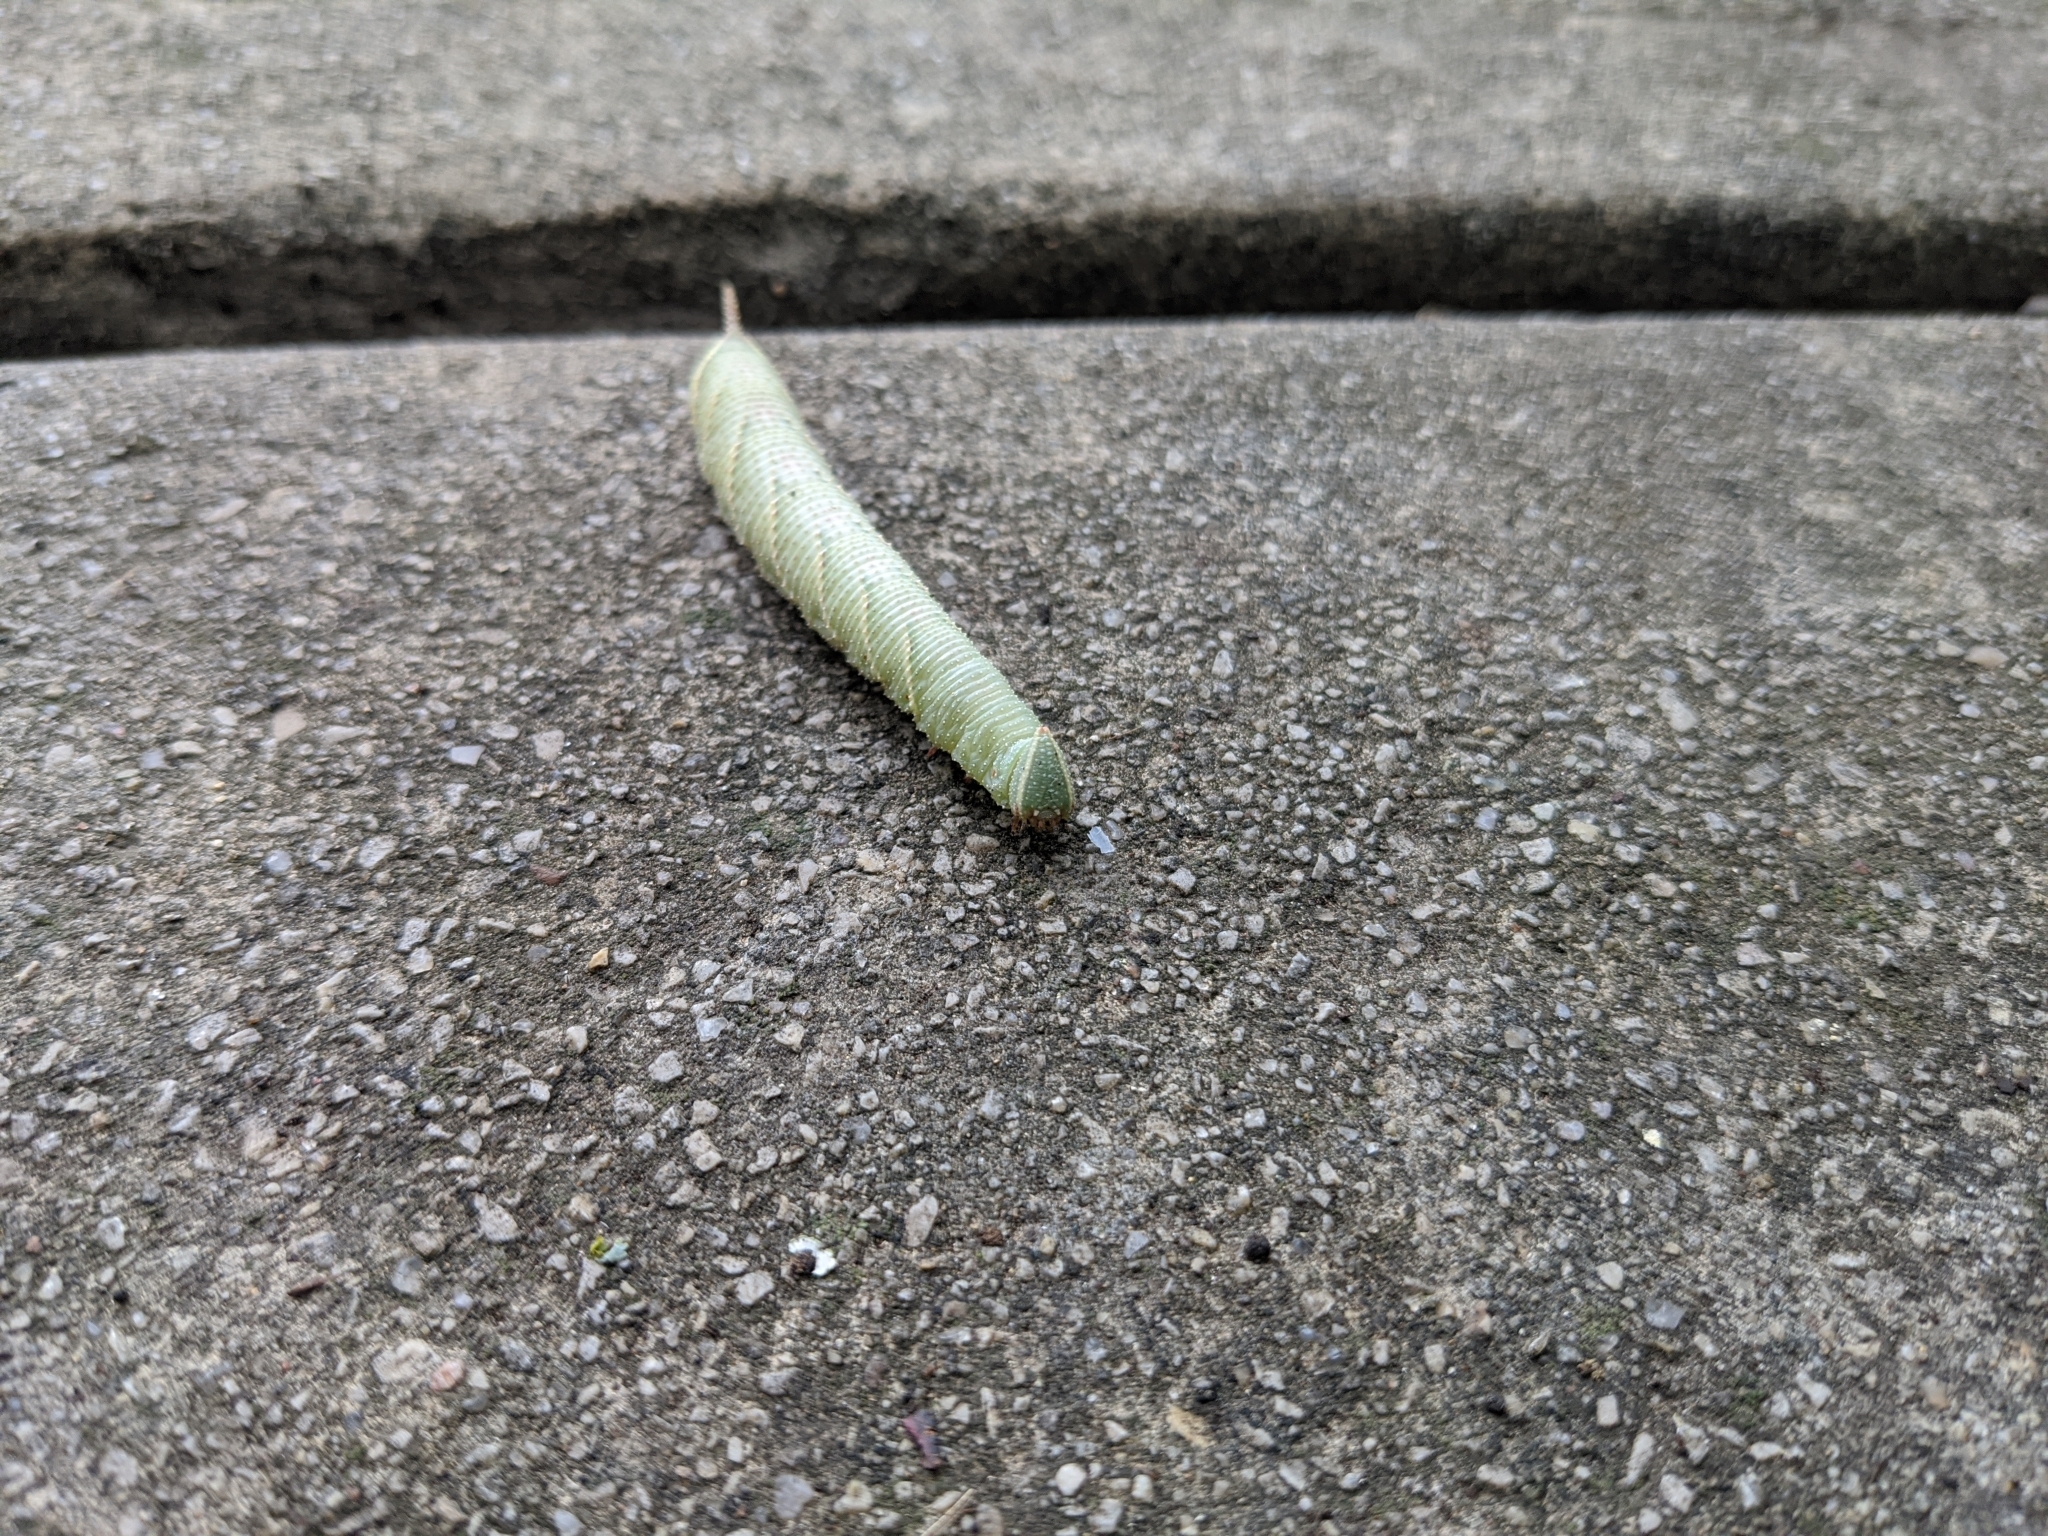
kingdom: Animalia
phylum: Arthropoda
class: Insecta
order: Lepidoptera
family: Sphingidae
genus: Amorpha
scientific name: Amorpha juglandis
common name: Walnut sphinx
